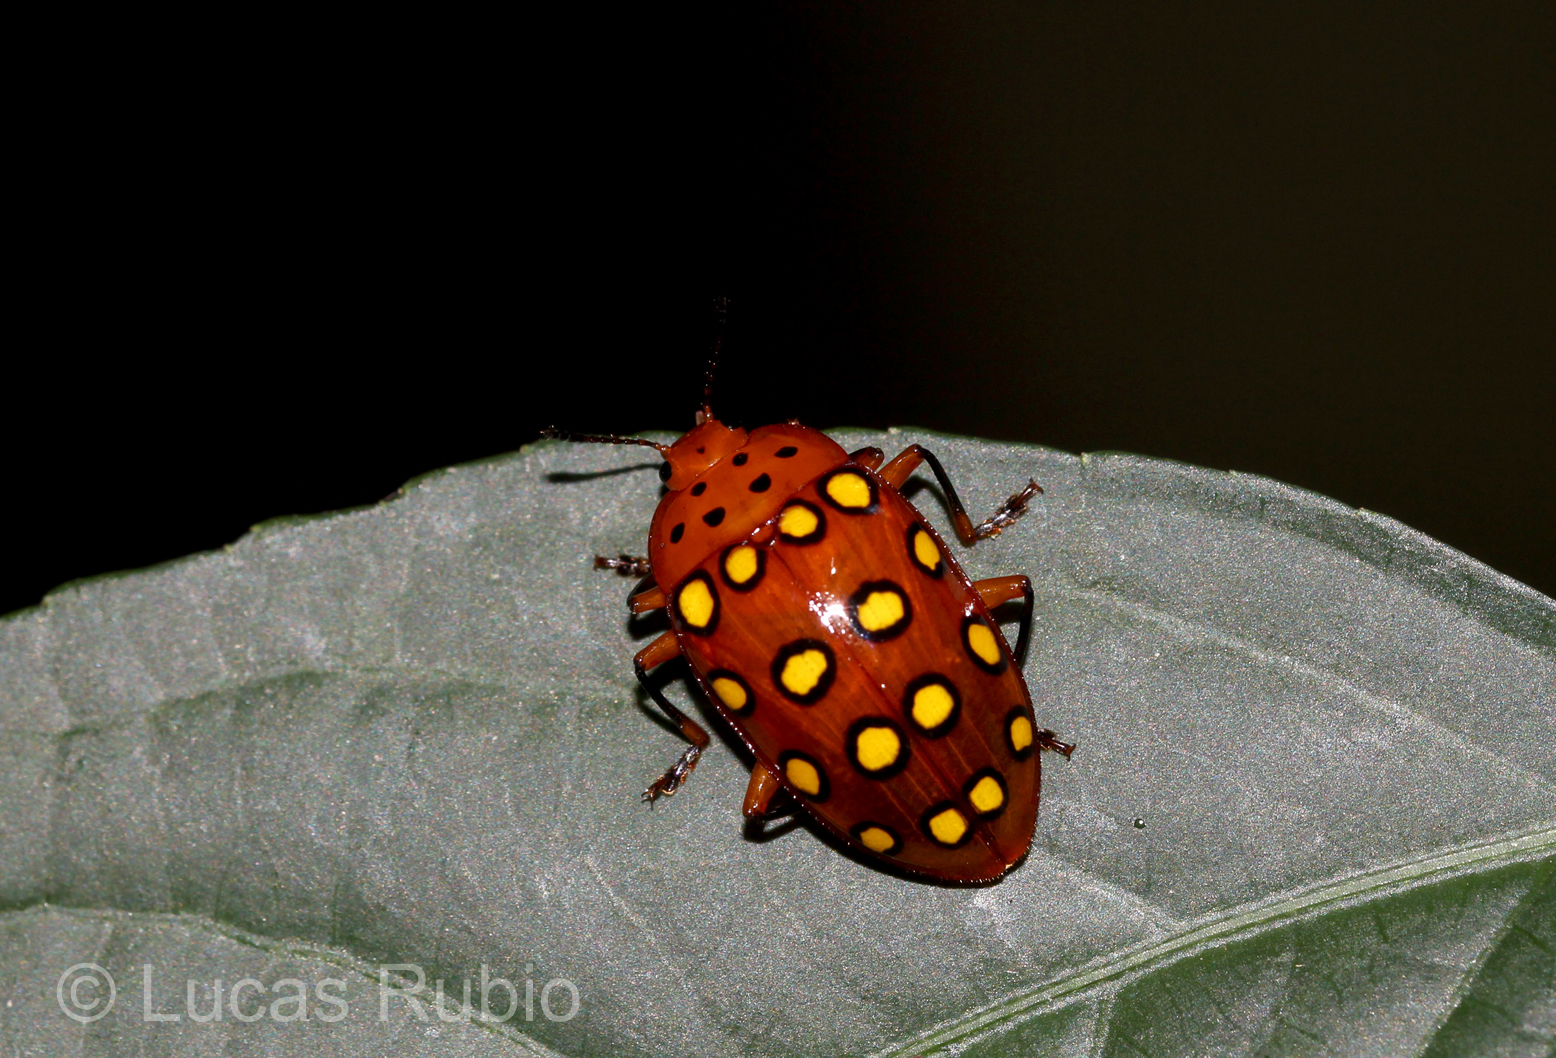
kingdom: Animalia
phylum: Arthropoda
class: Insecta
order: Coleoptera
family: Erotylidae
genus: Iphiclus
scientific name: Iphiclus
